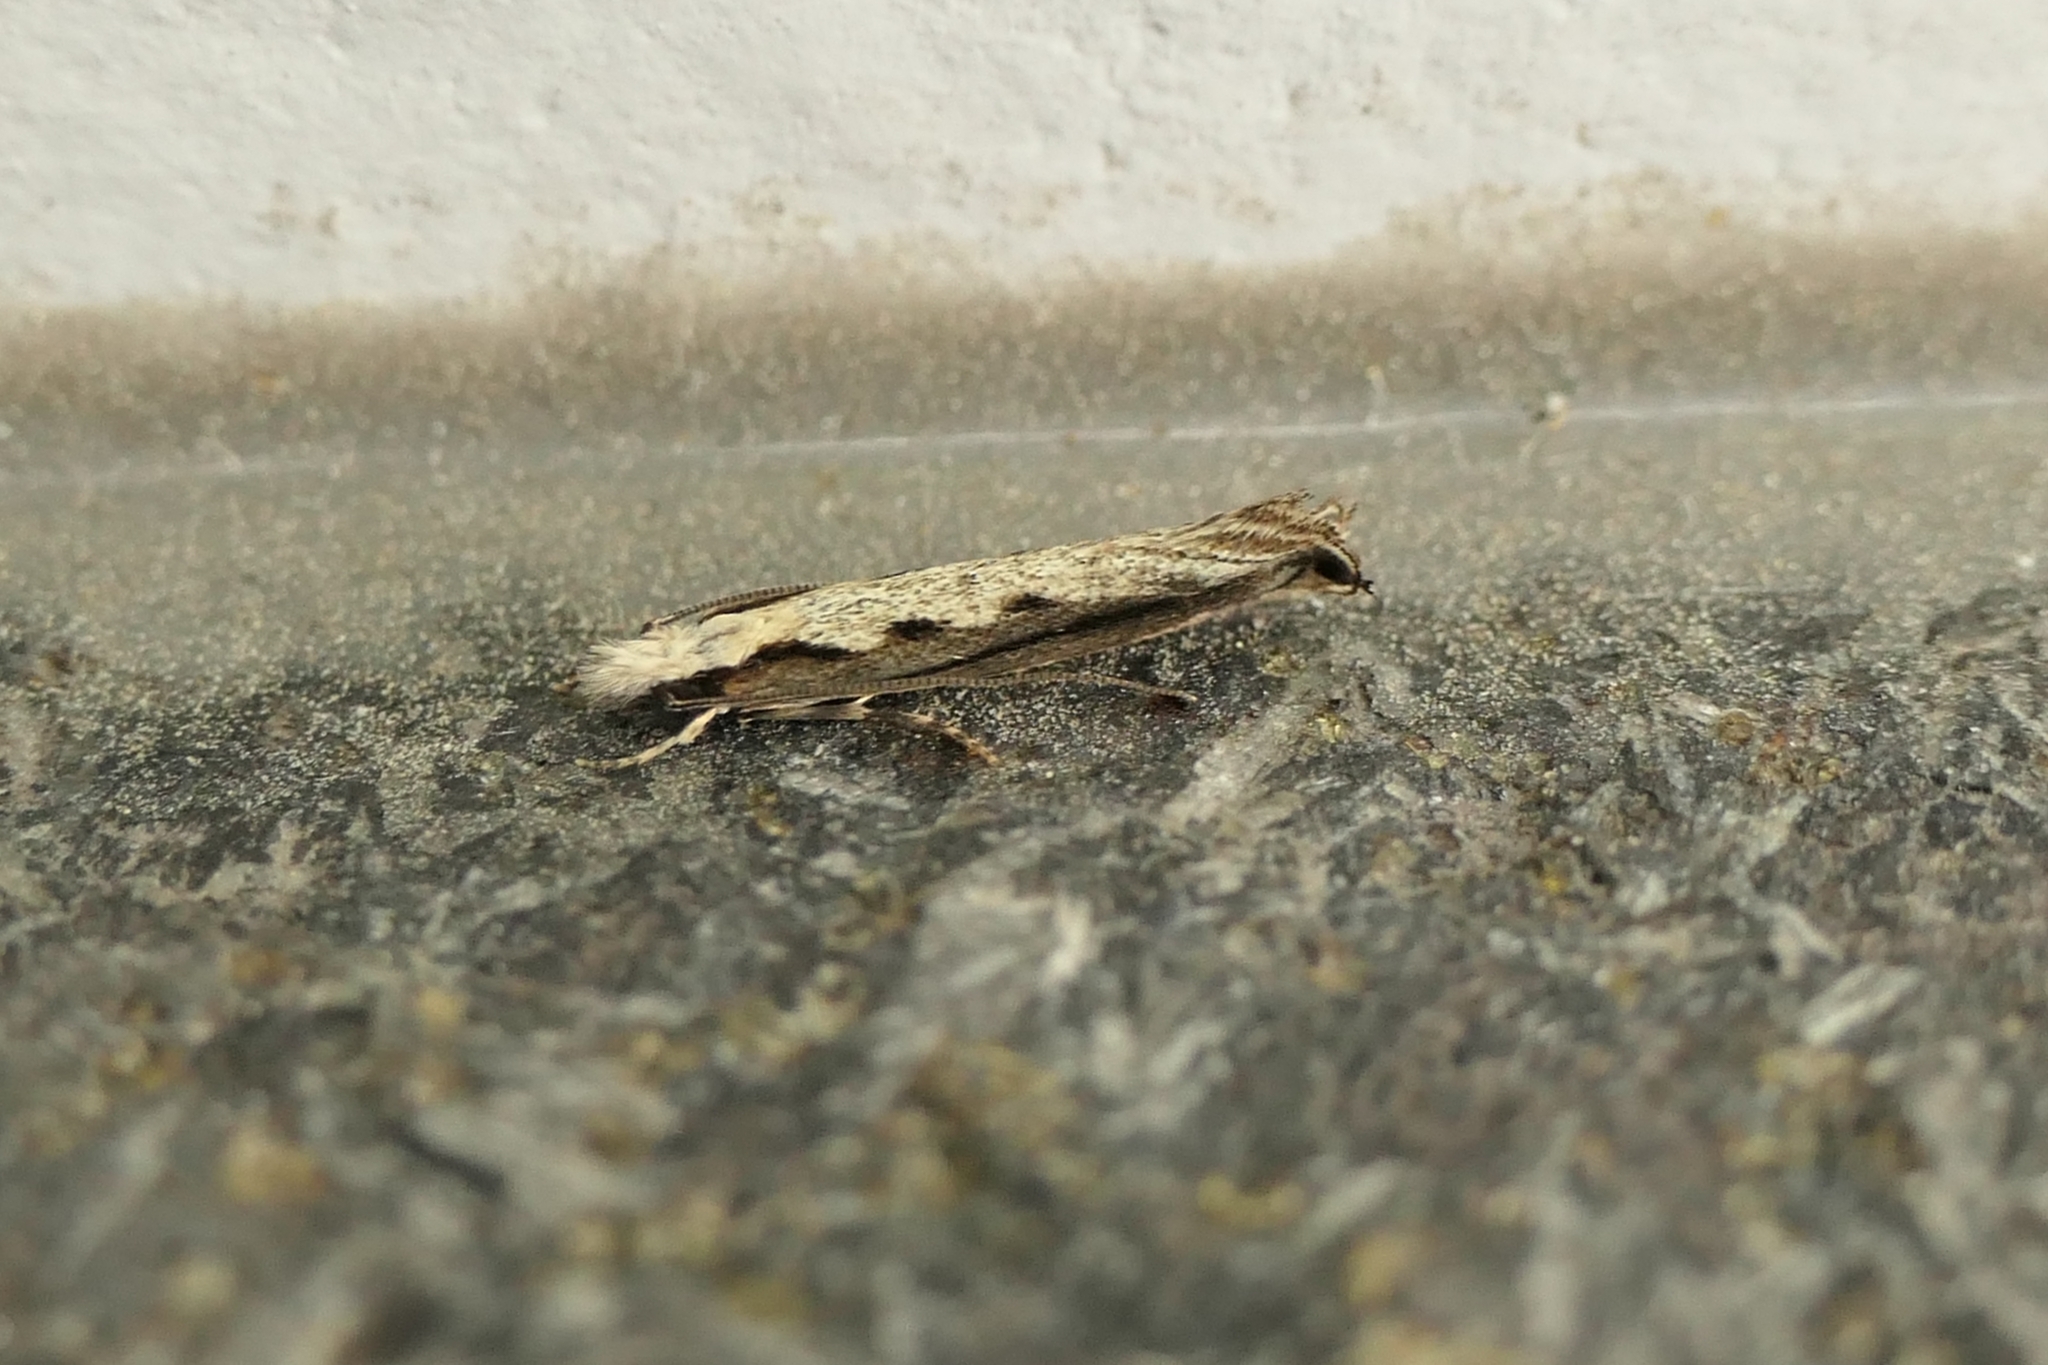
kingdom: Animalia
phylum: Arthropoda
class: Insecta
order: Lepidoptera
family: Tineidae
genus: Erechthias
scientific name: Erechthias fulguritella
